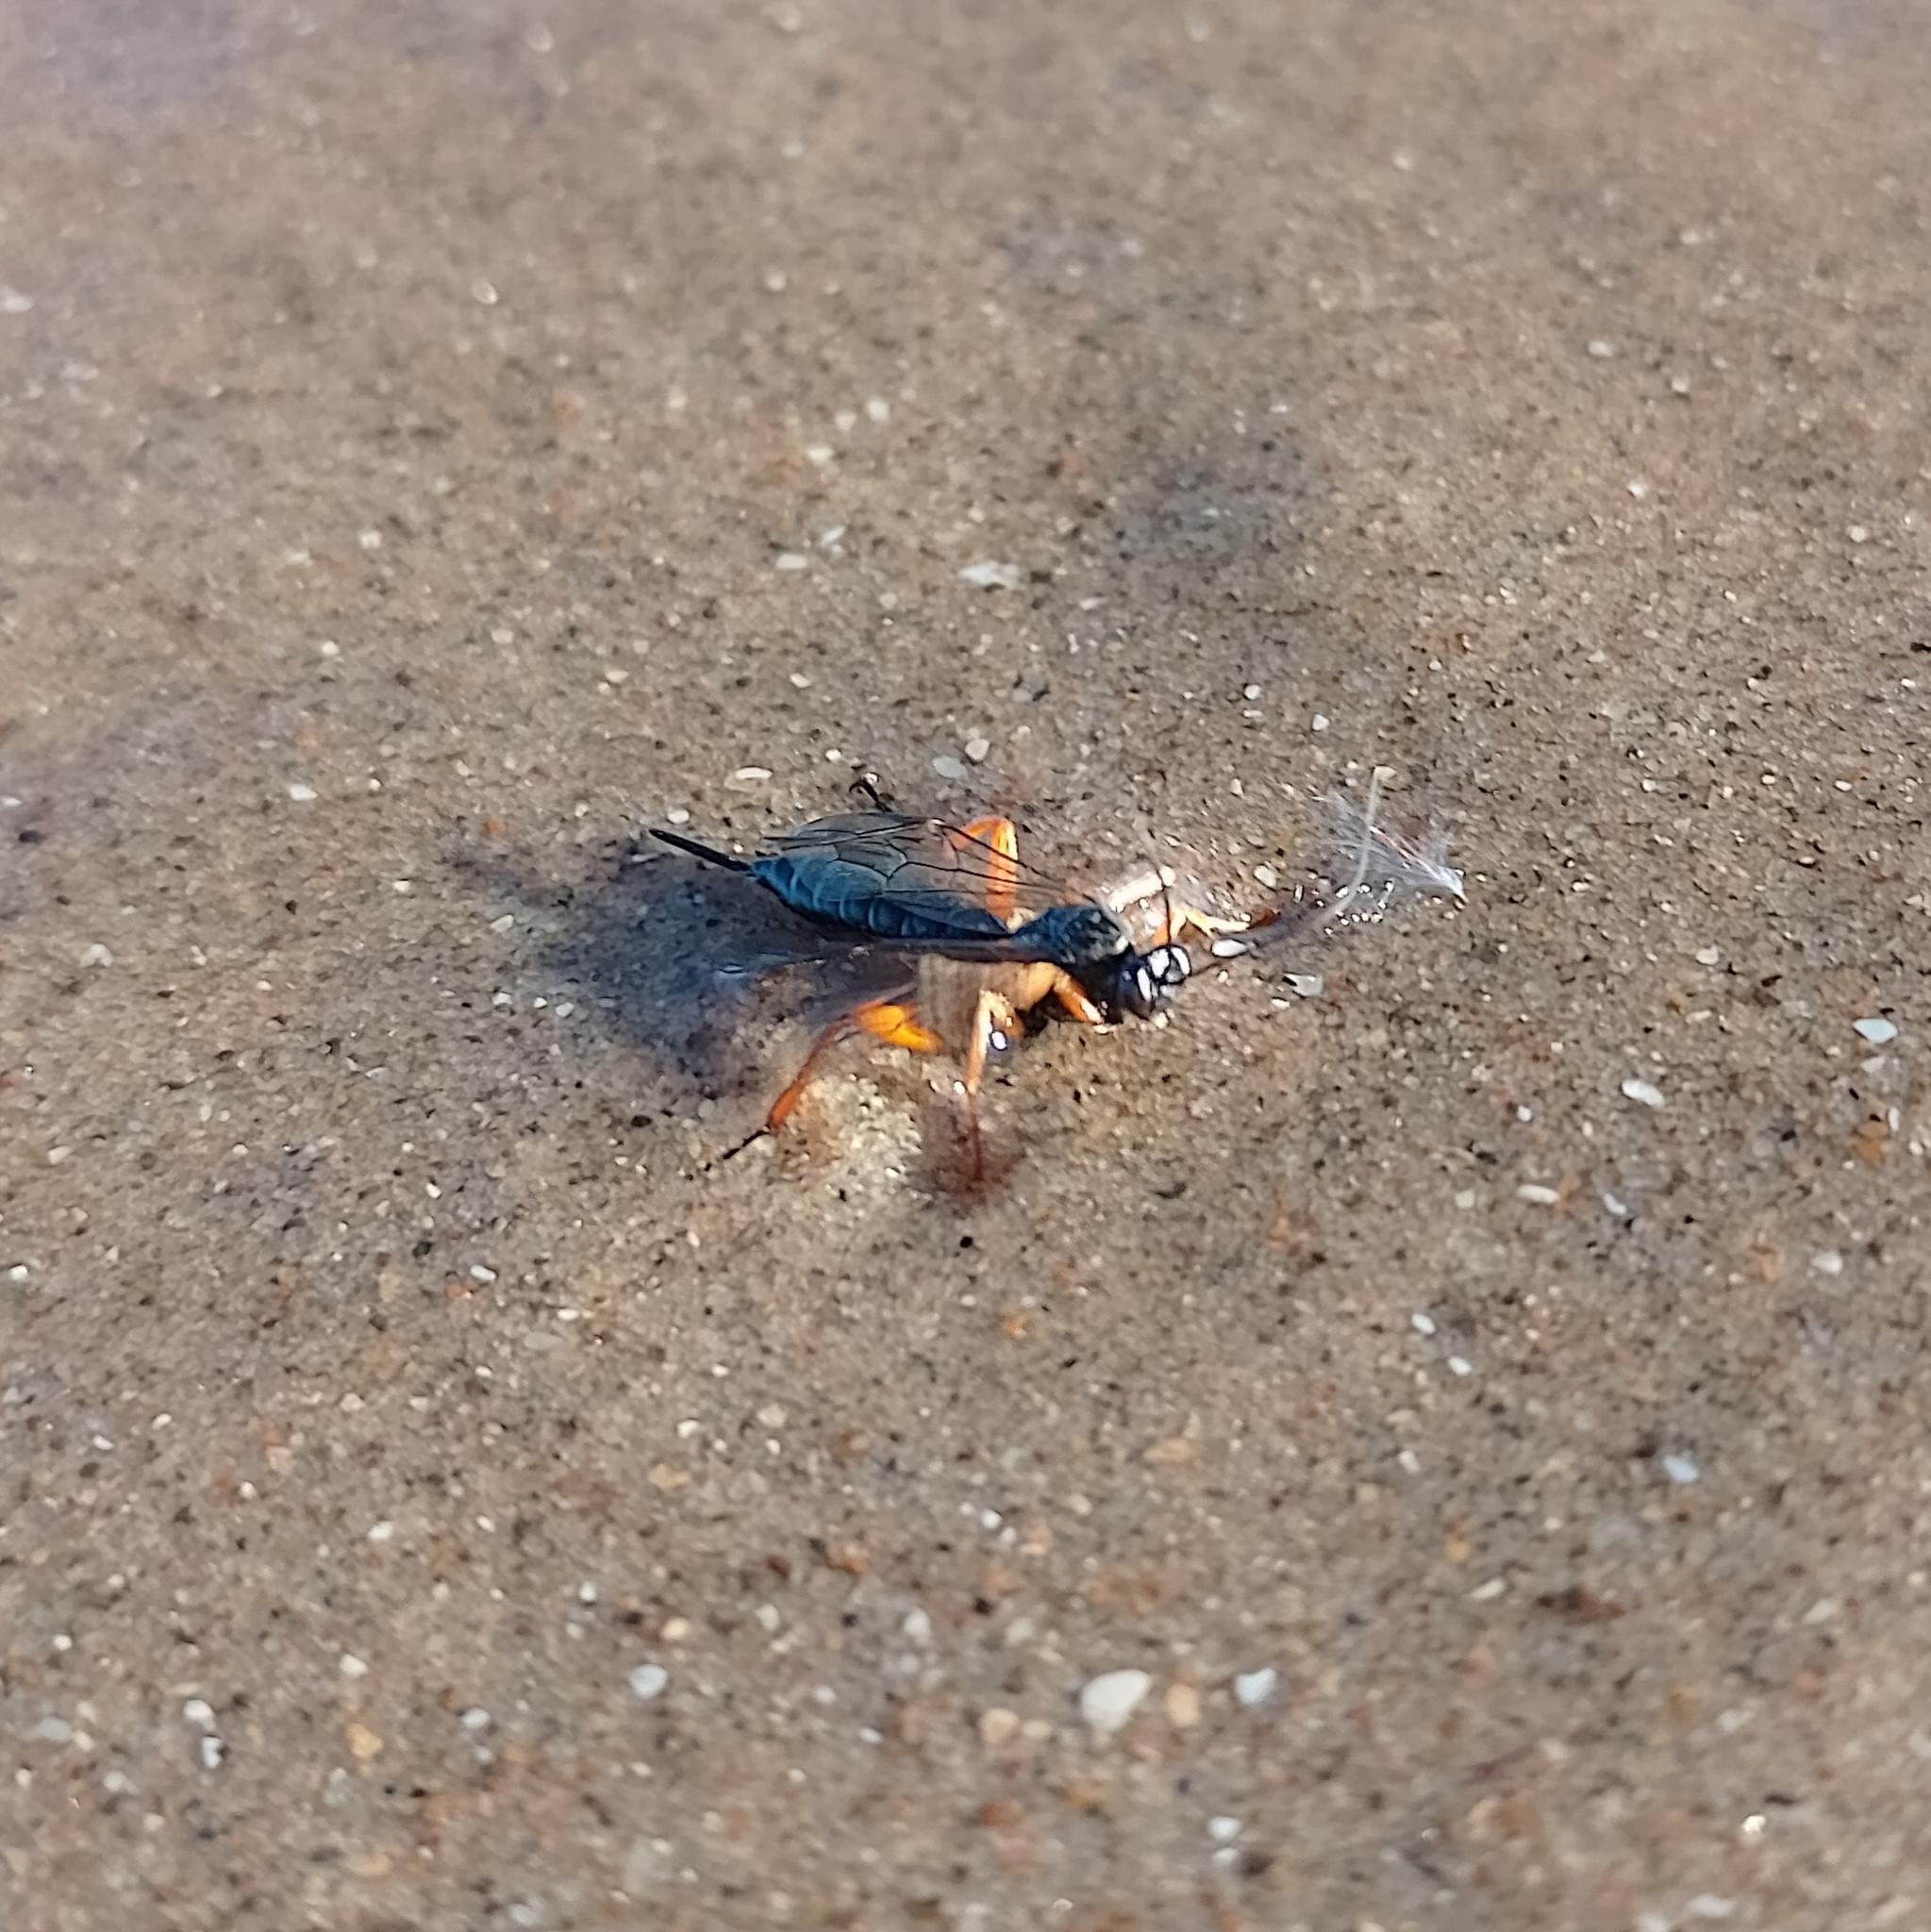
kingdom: Animalia
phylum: Arthropoda
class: Insecta
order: Hymenoptera
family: Ichneumonidae
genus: Pimpla
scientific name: Pimpla rufipes
